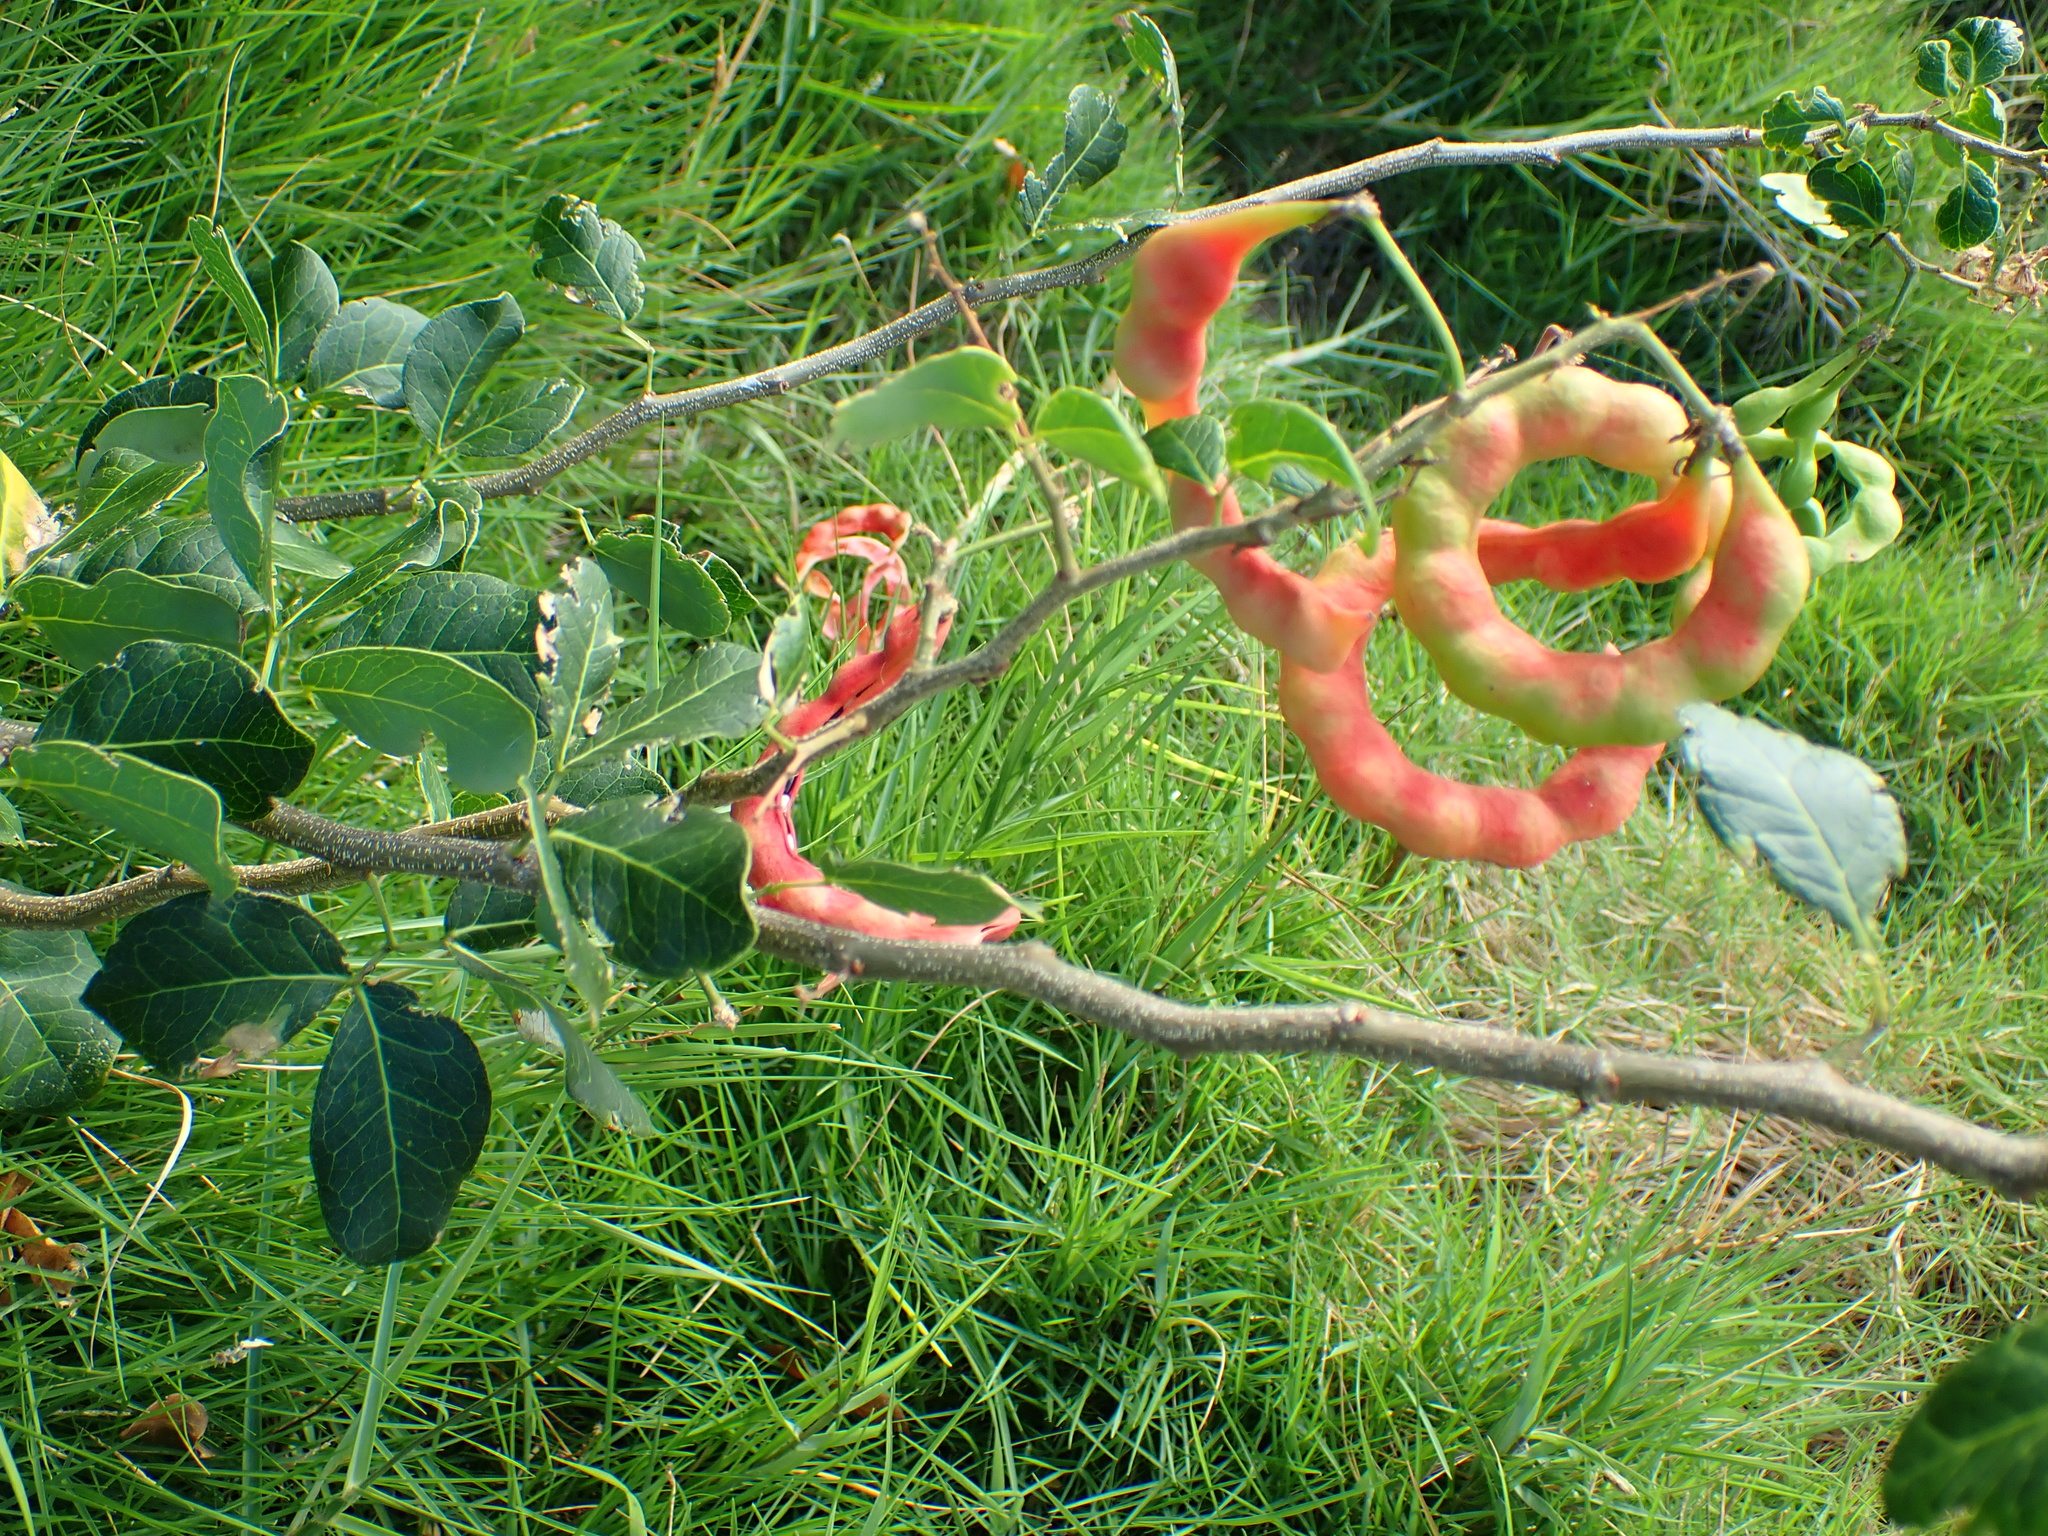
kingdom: Plantae
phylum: Tracheophyta
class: Magnoliopsida
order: Fabales
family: Fabaceae
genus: Pithecellobium
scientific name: Pithecellobium unguis-cati
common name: Cat's-claw
